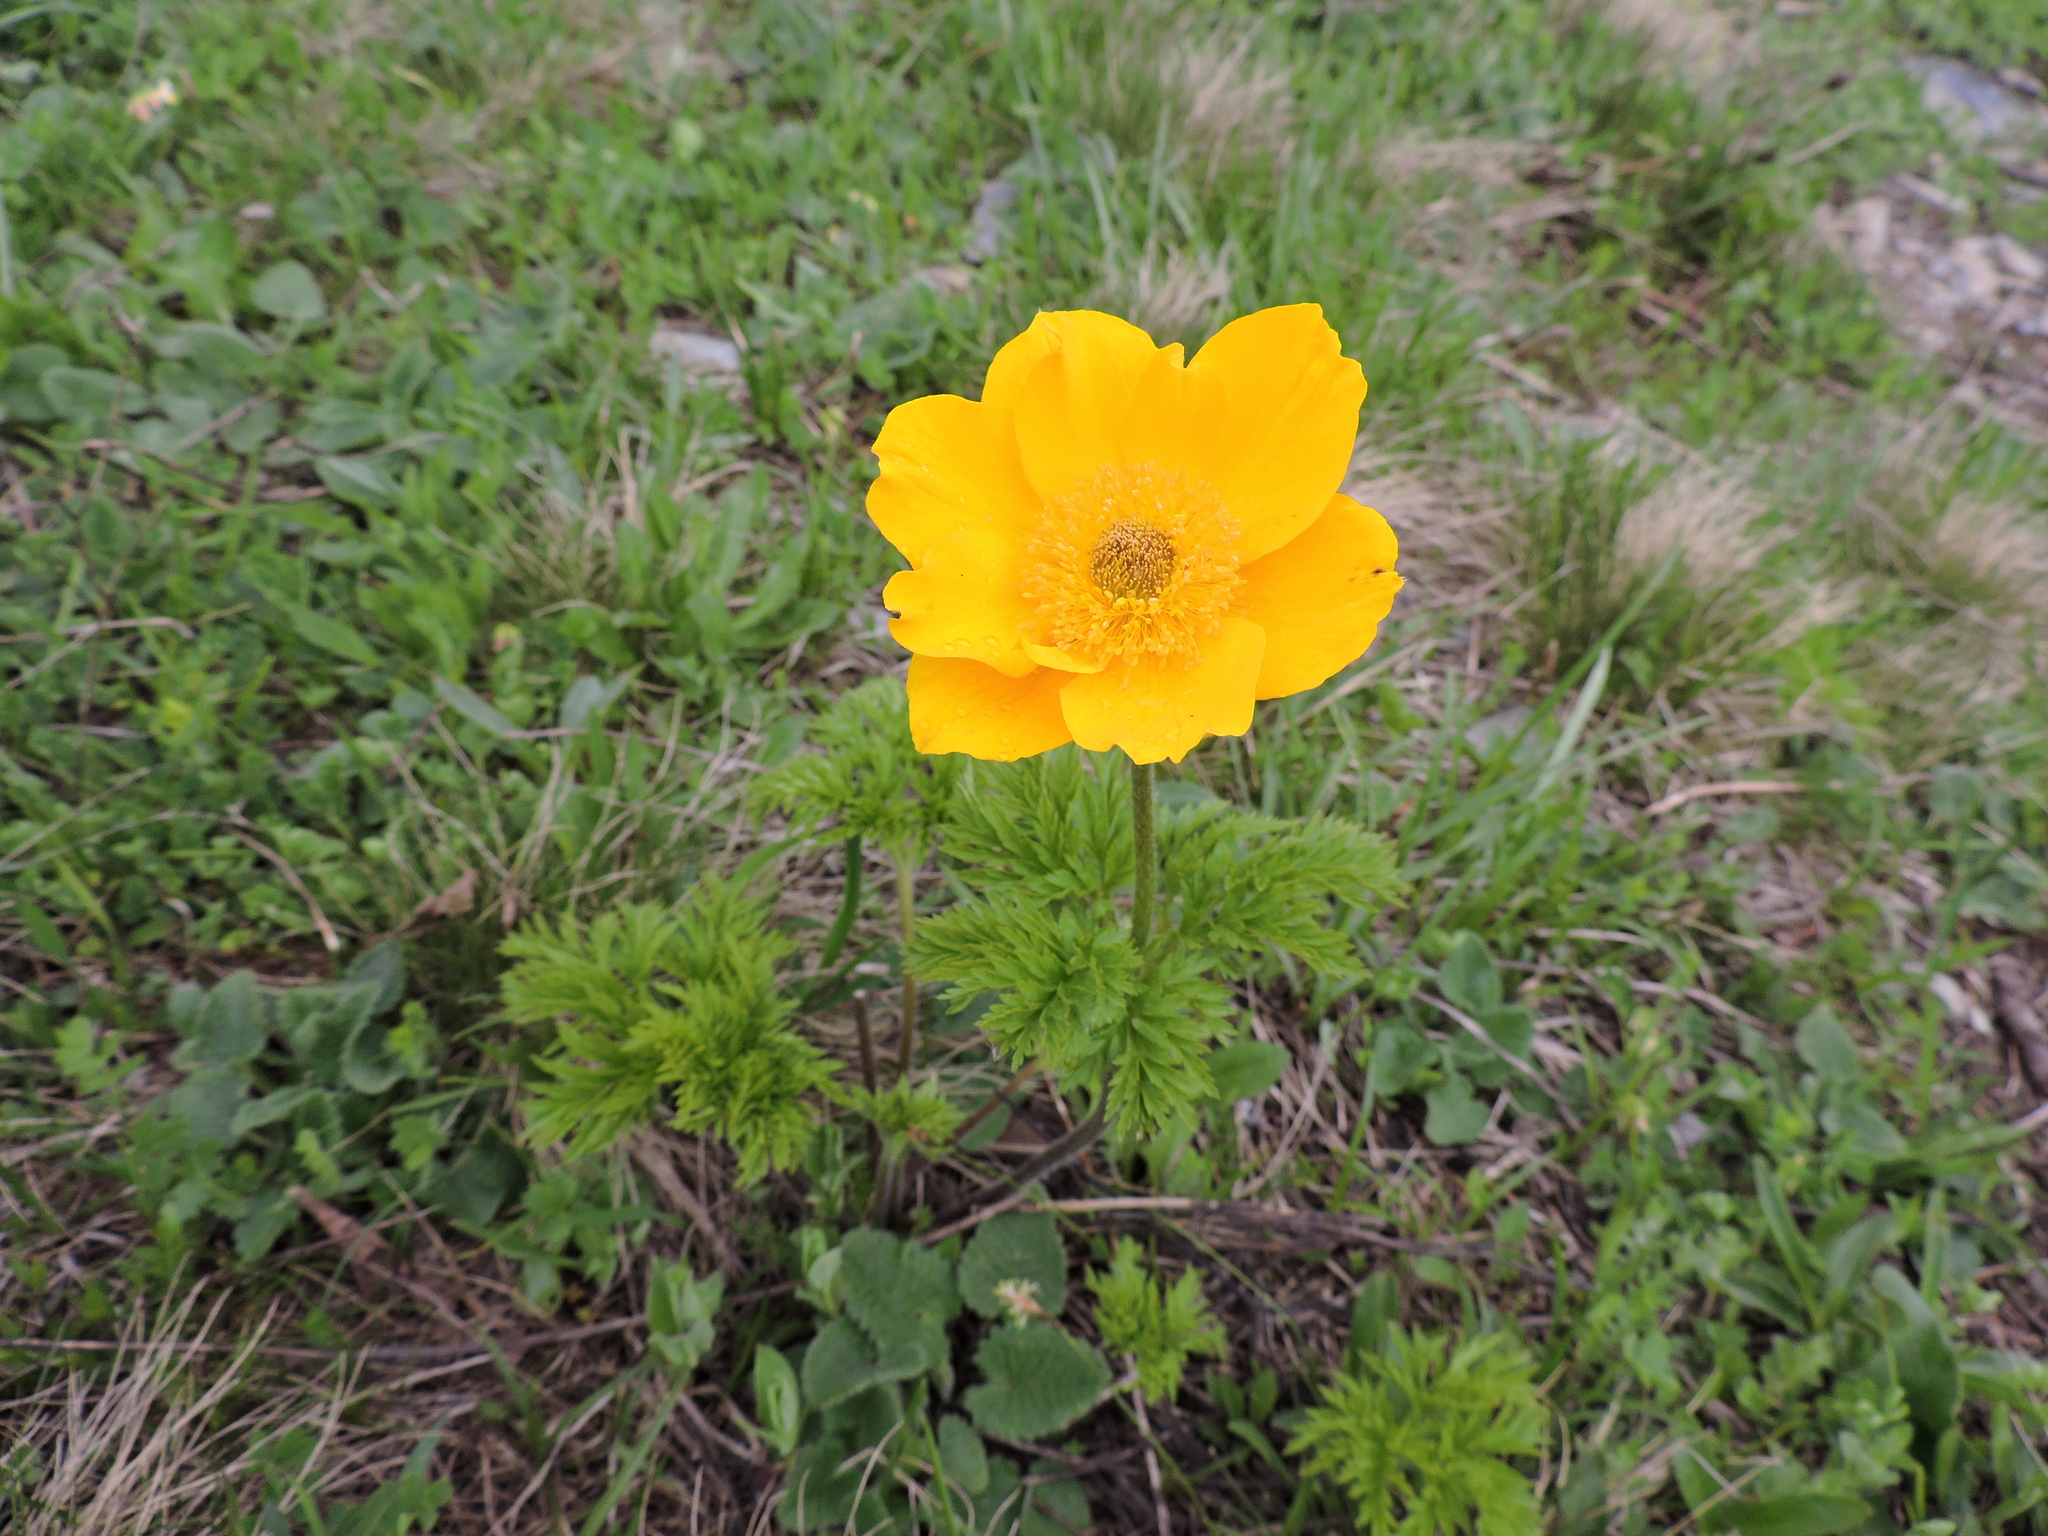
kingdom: Plantae
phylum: Tracheophyta
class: Magnoliopsida
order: Ranunculales
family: Ranunculaceae
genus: Pulsatilla
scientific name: Pulsatilla aurea
